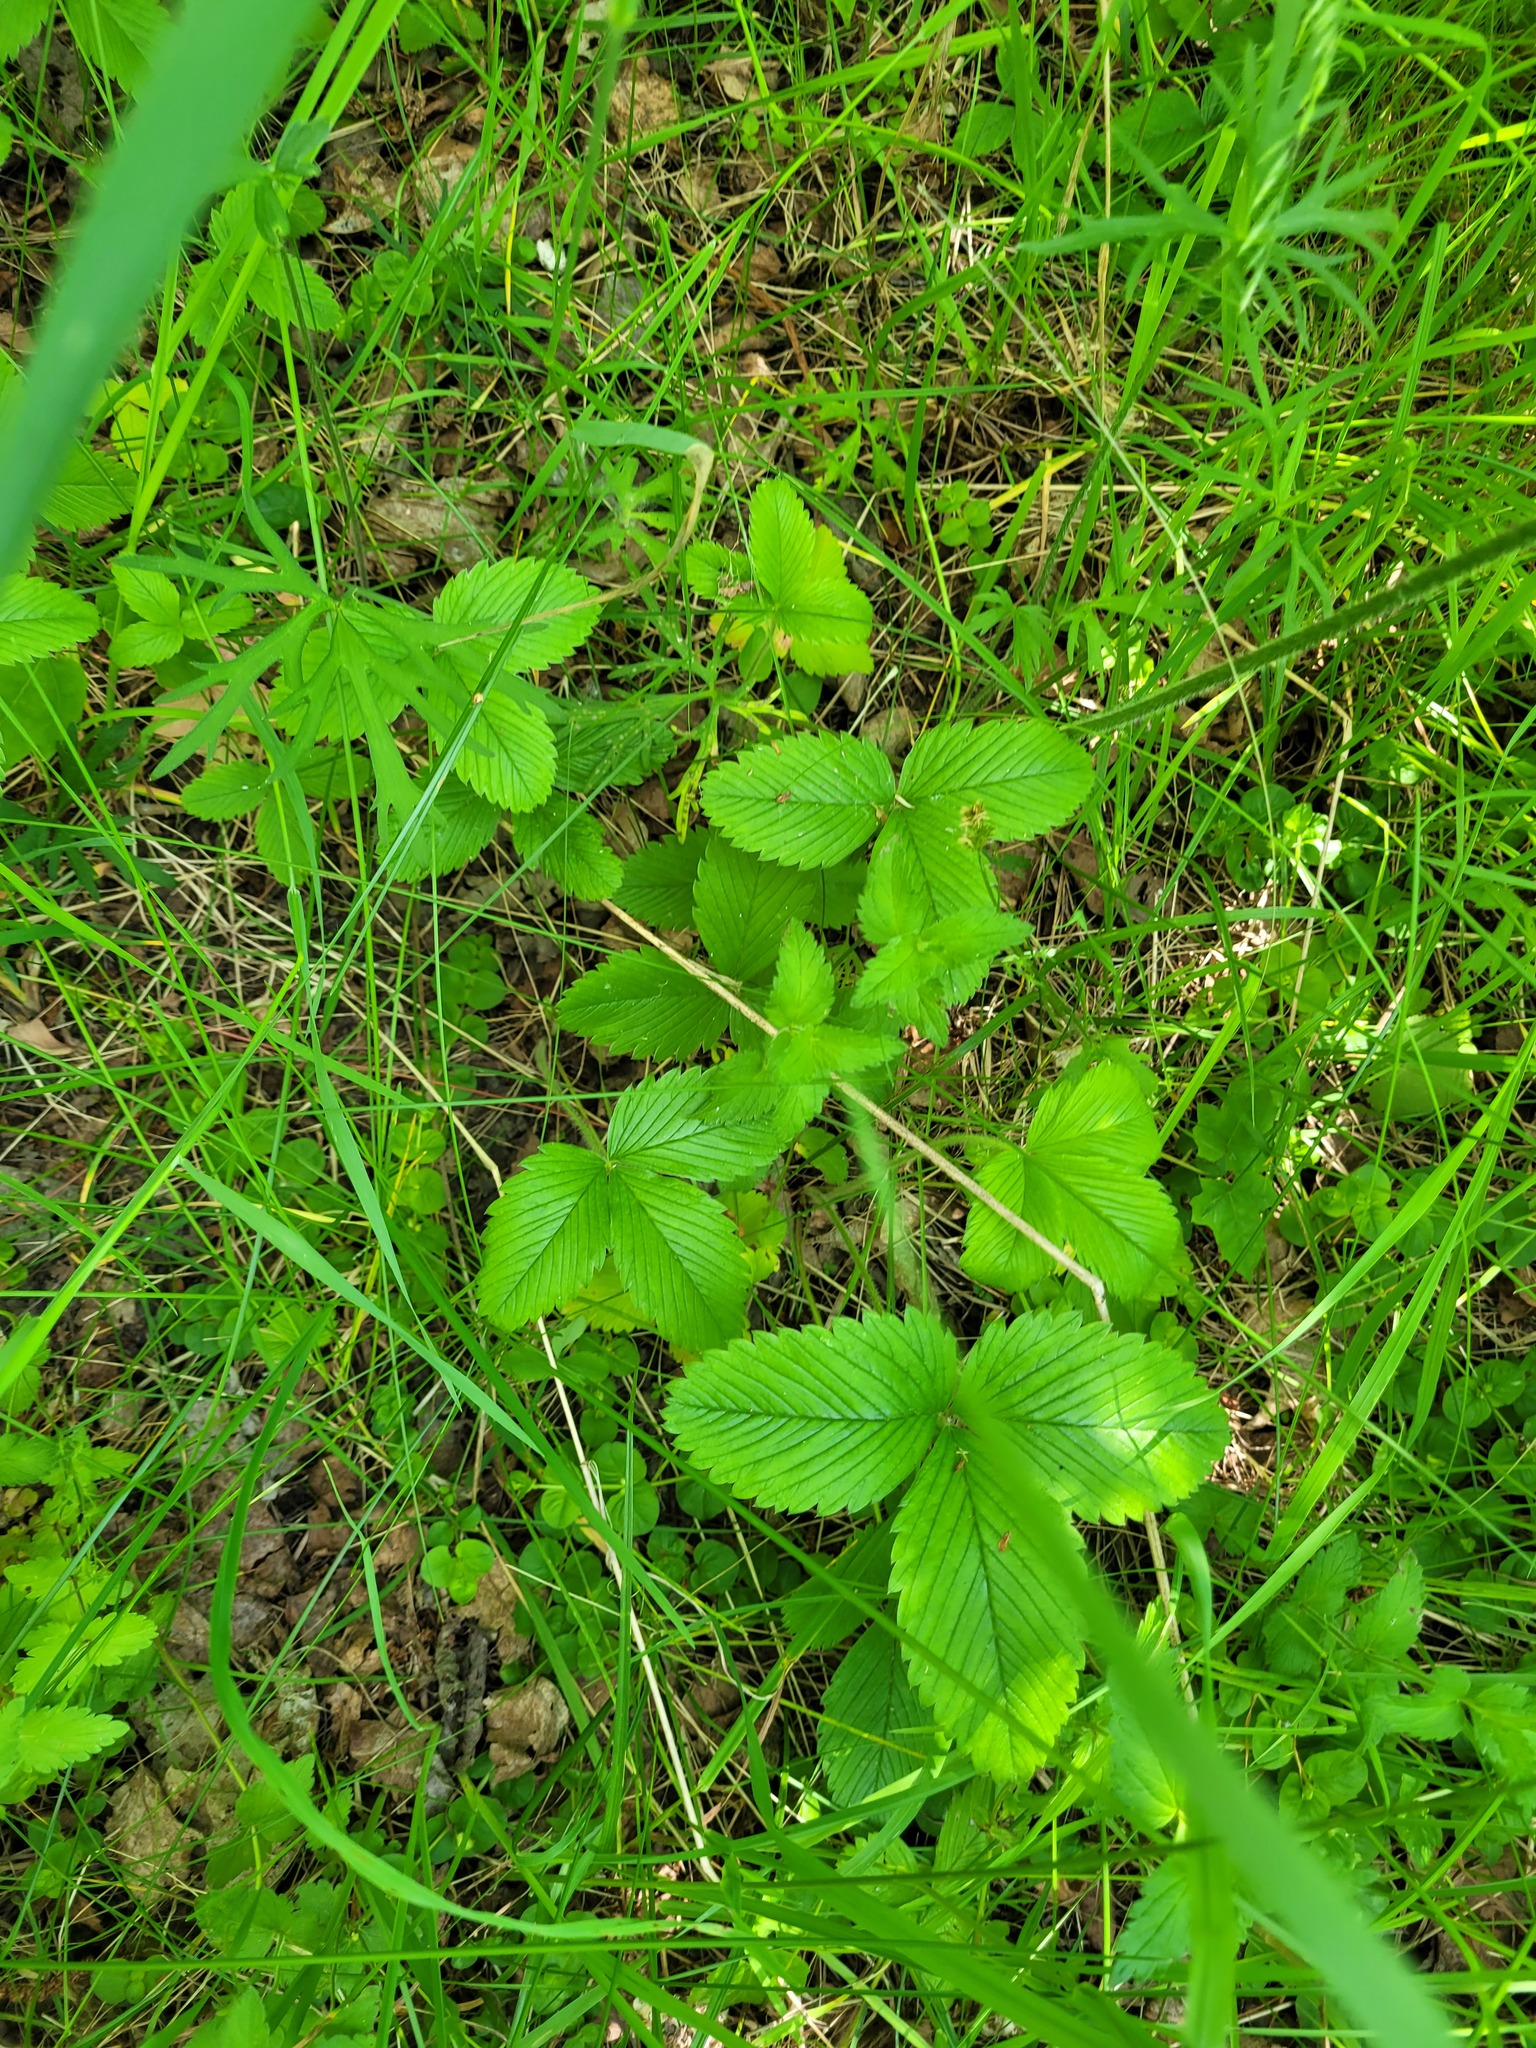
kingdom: Plantae
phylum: Tracheophyta
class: Magnoliopsida
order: Rosales
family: Rosaceae
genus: Fragaria
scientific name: Fragaria moschata
